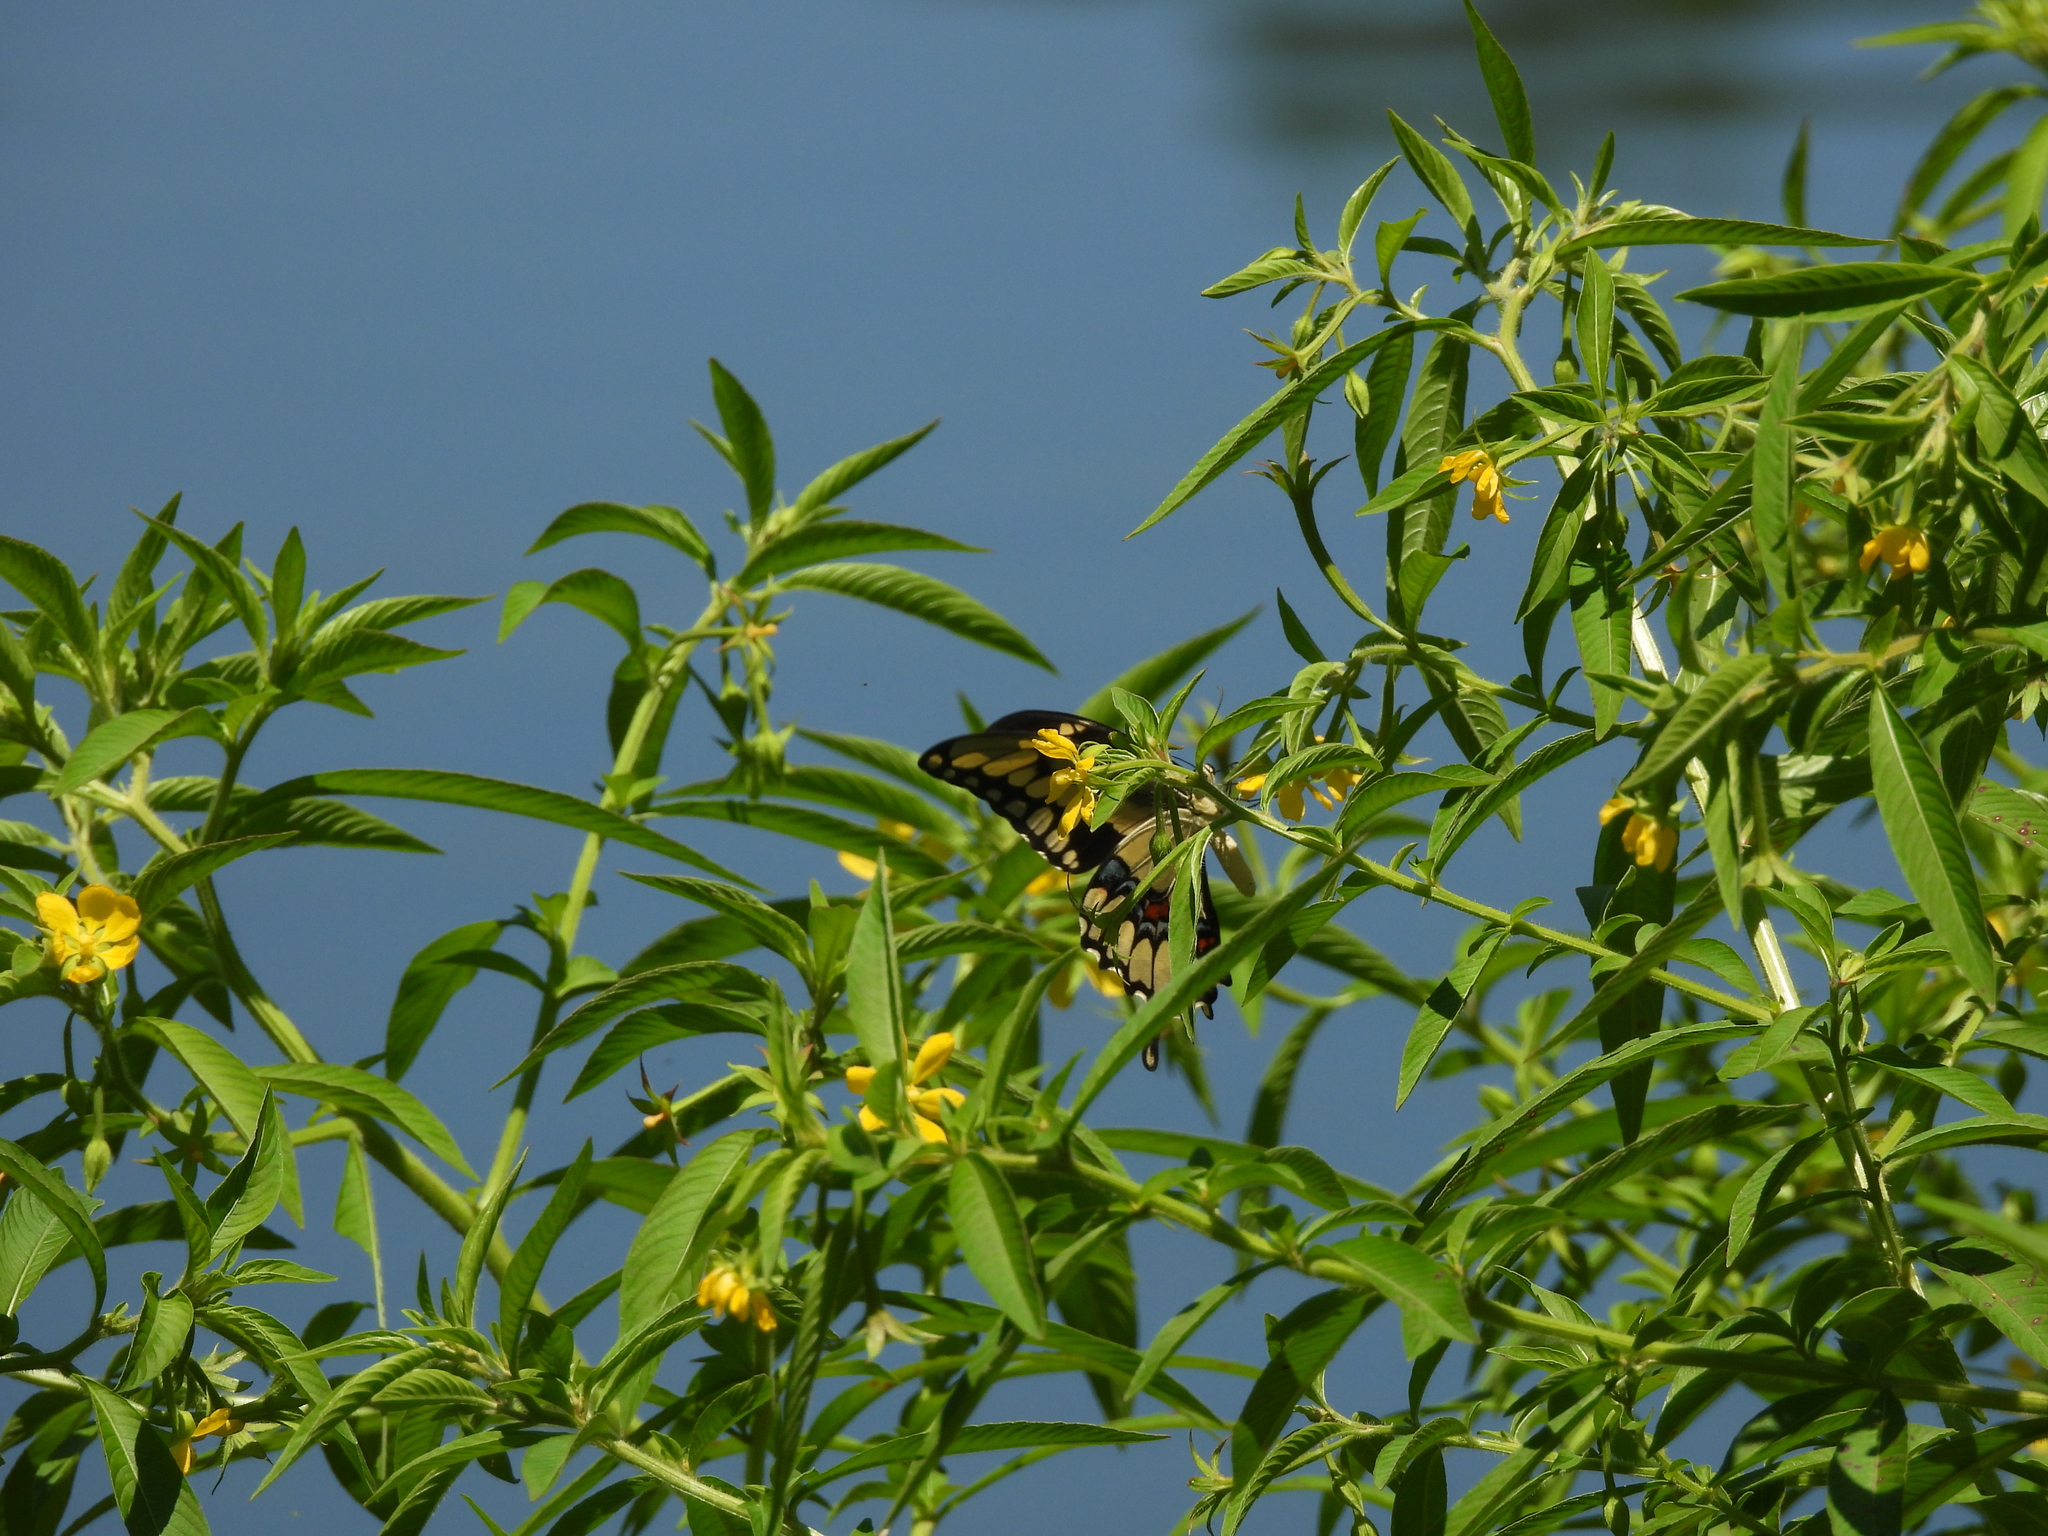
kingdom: Animalia
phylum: Arthropoda
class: Insecta
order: Lepidoptera
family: Papilionidae
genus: Papilio
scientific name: Papilio cresphontes
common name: Giant swallowtail
